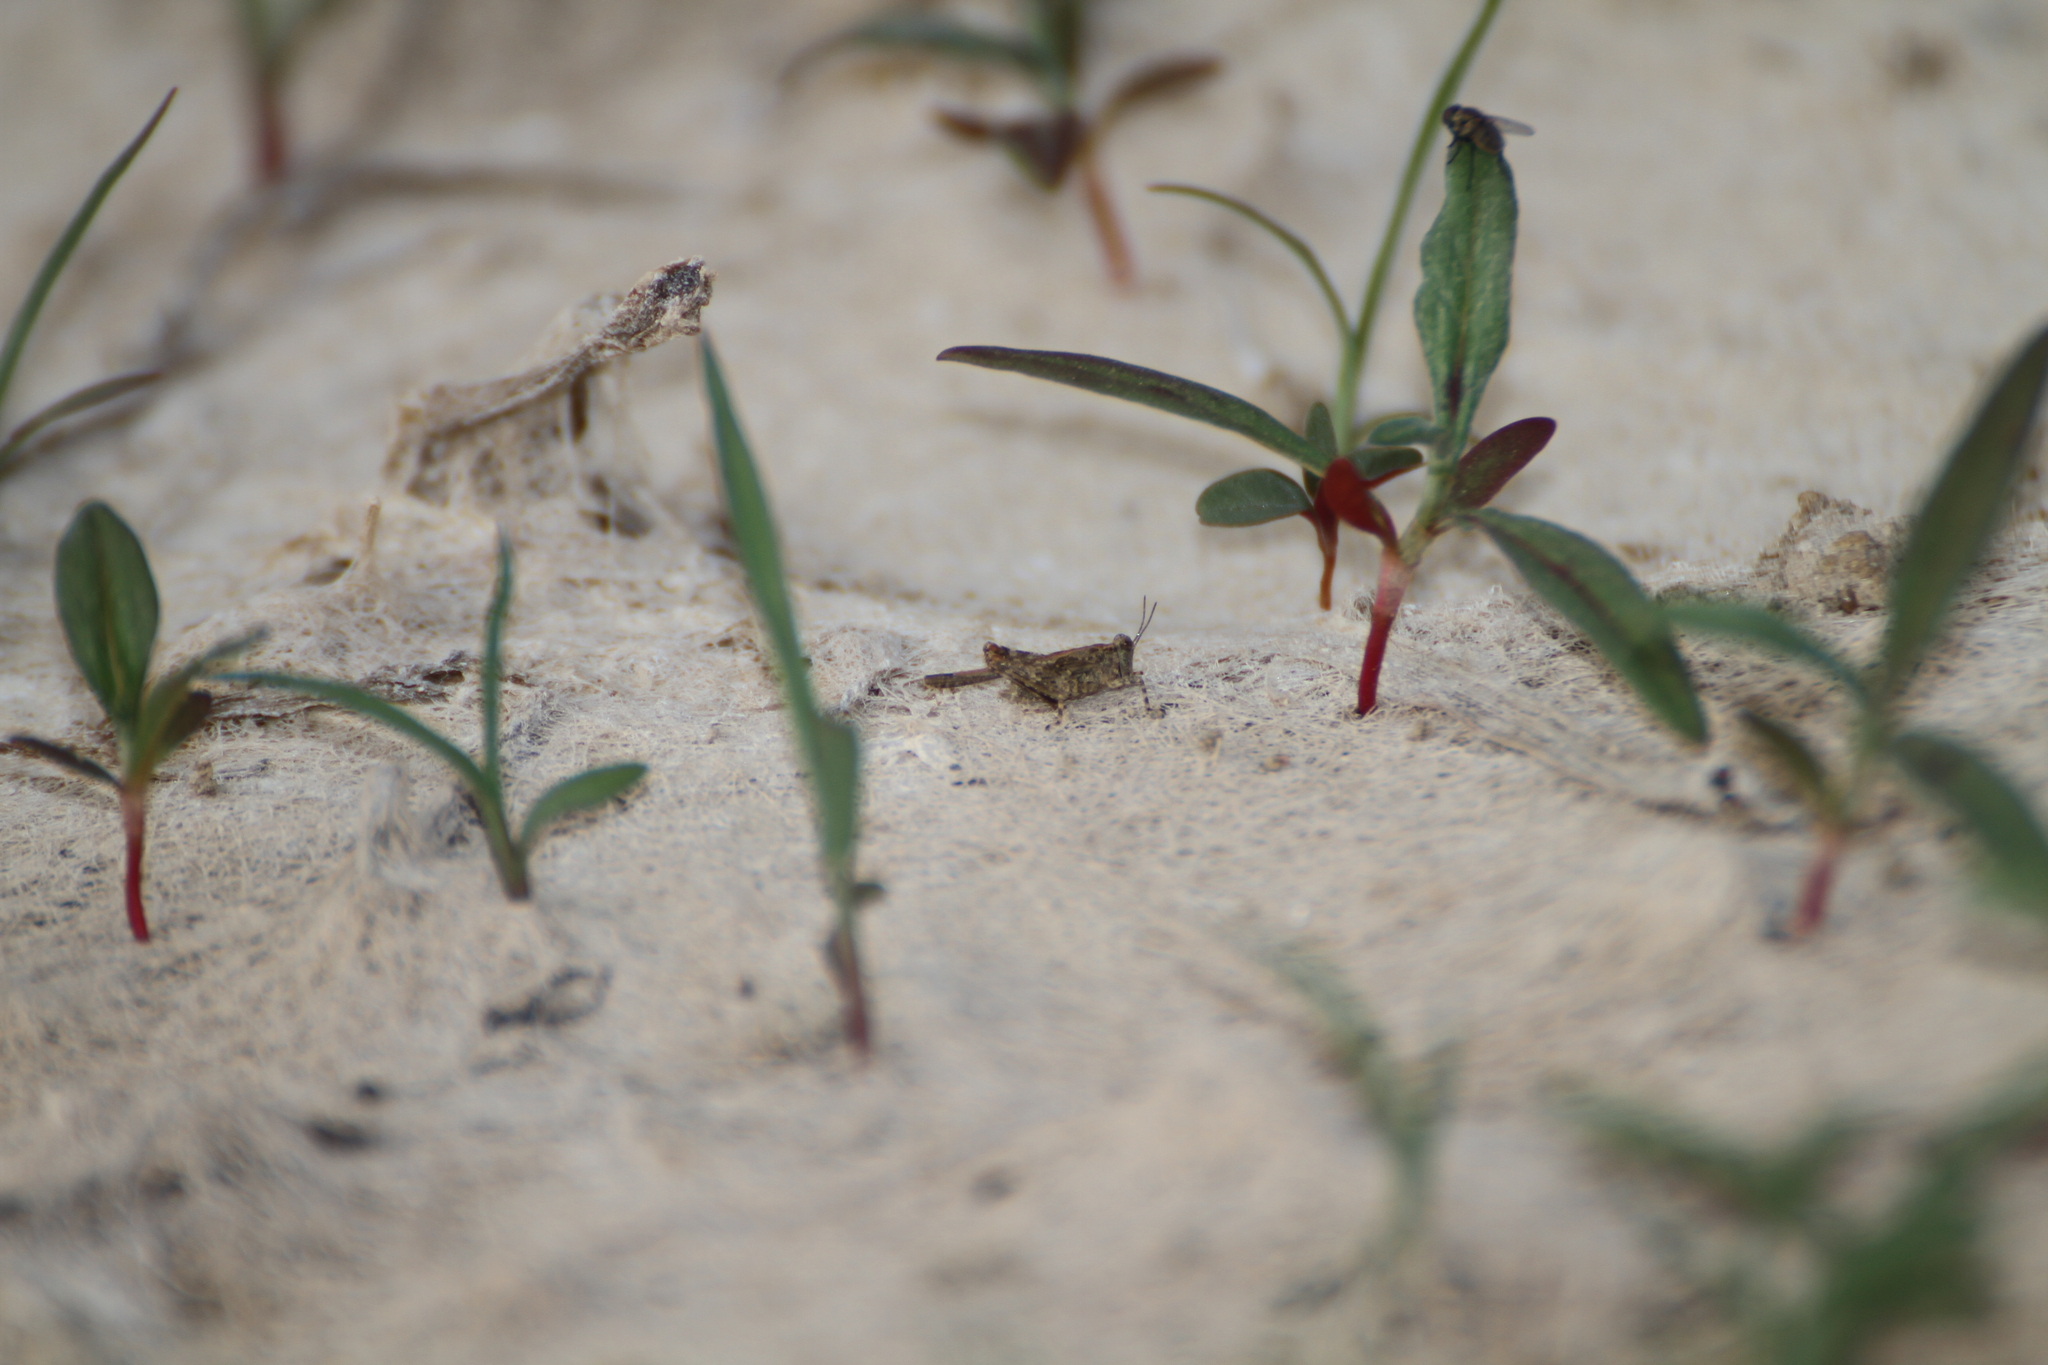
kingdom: Animalia
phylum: Arthropoda
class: Insecta
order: Orthoptera
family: Tetrigidae
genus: Paratettix
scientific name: Paratettix meridionalis
